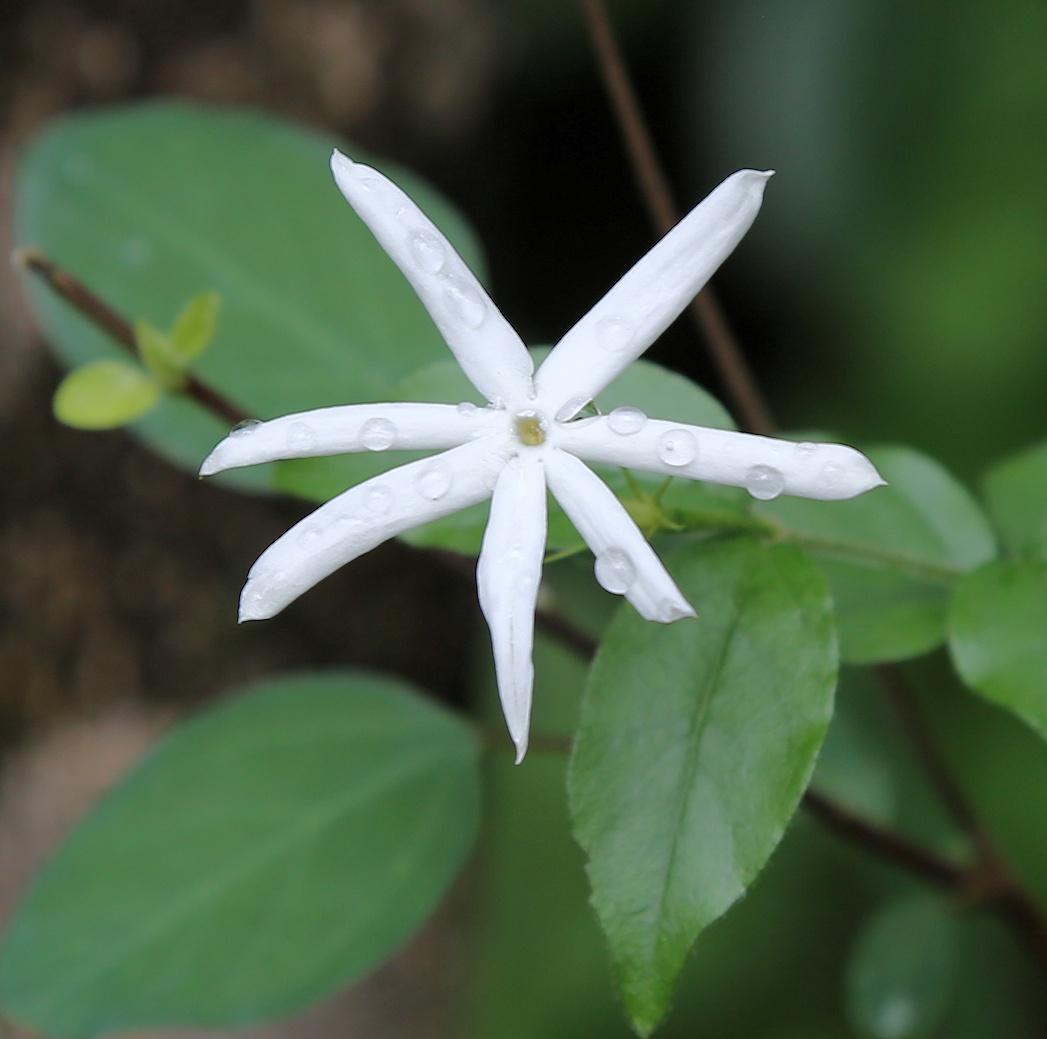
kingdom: Plantae
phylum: Tracheophyta
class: Magnoliopsida
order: Lamiales
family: Oleaceae
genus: Jasminum
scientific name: Jasminum streptopus
